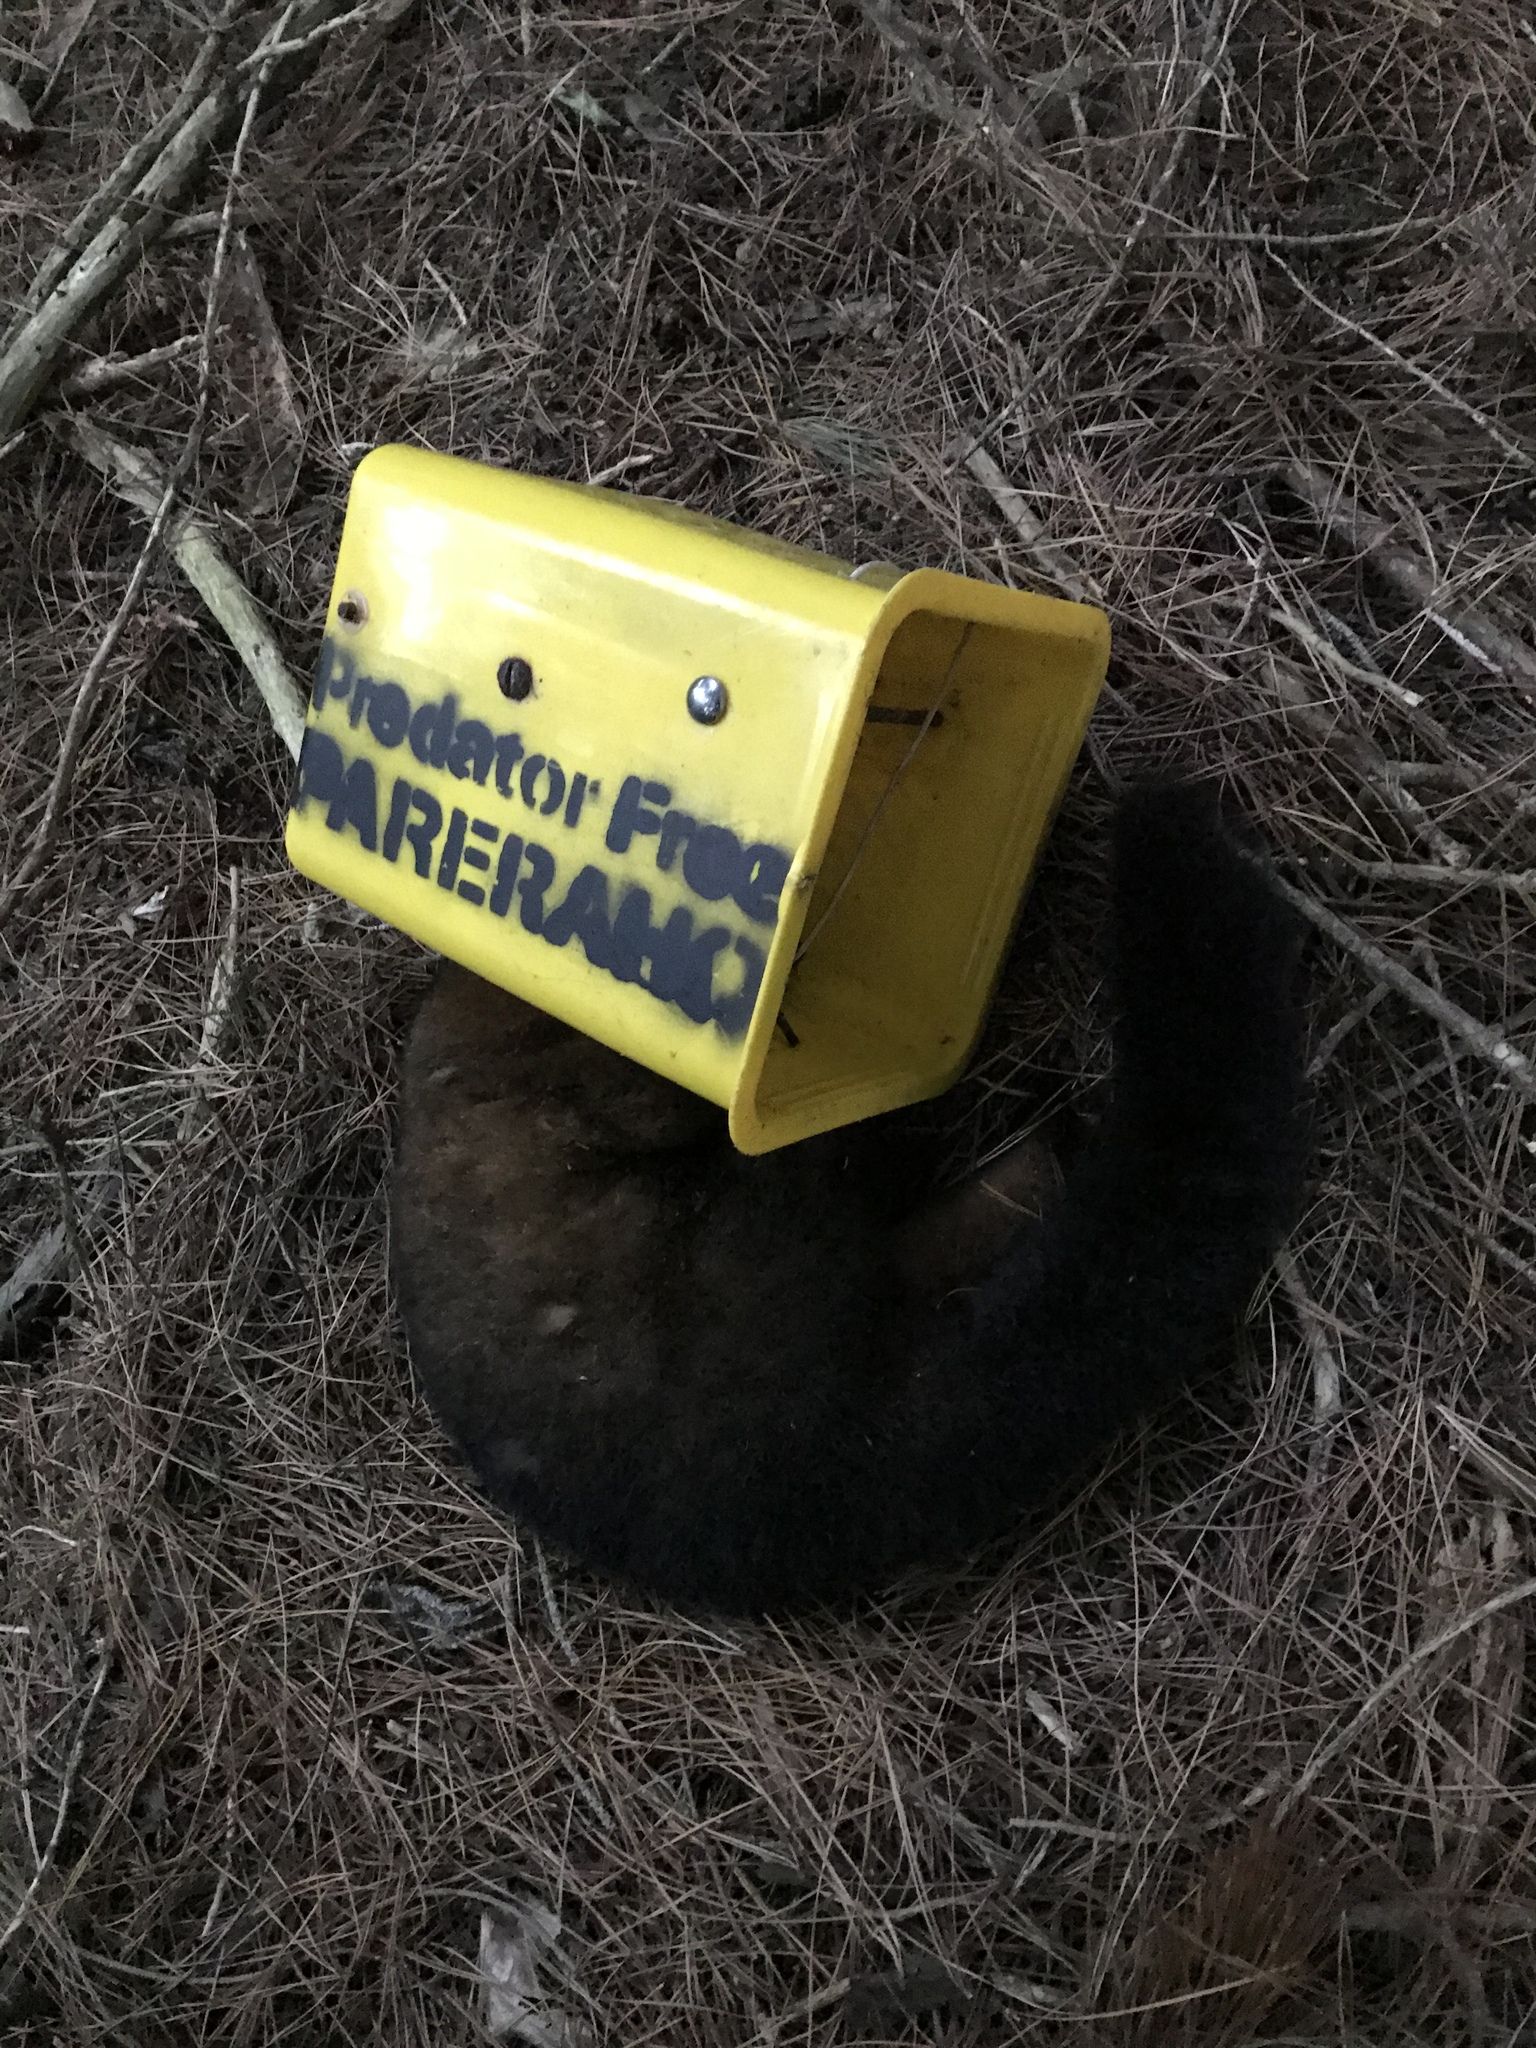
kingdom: Animalia
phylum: Chordata
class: Mammalia
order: Diprotodontia
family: Phalangeridae
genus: Trichosurus
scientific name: Trichosurus vulpecula
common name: Common brushtail
